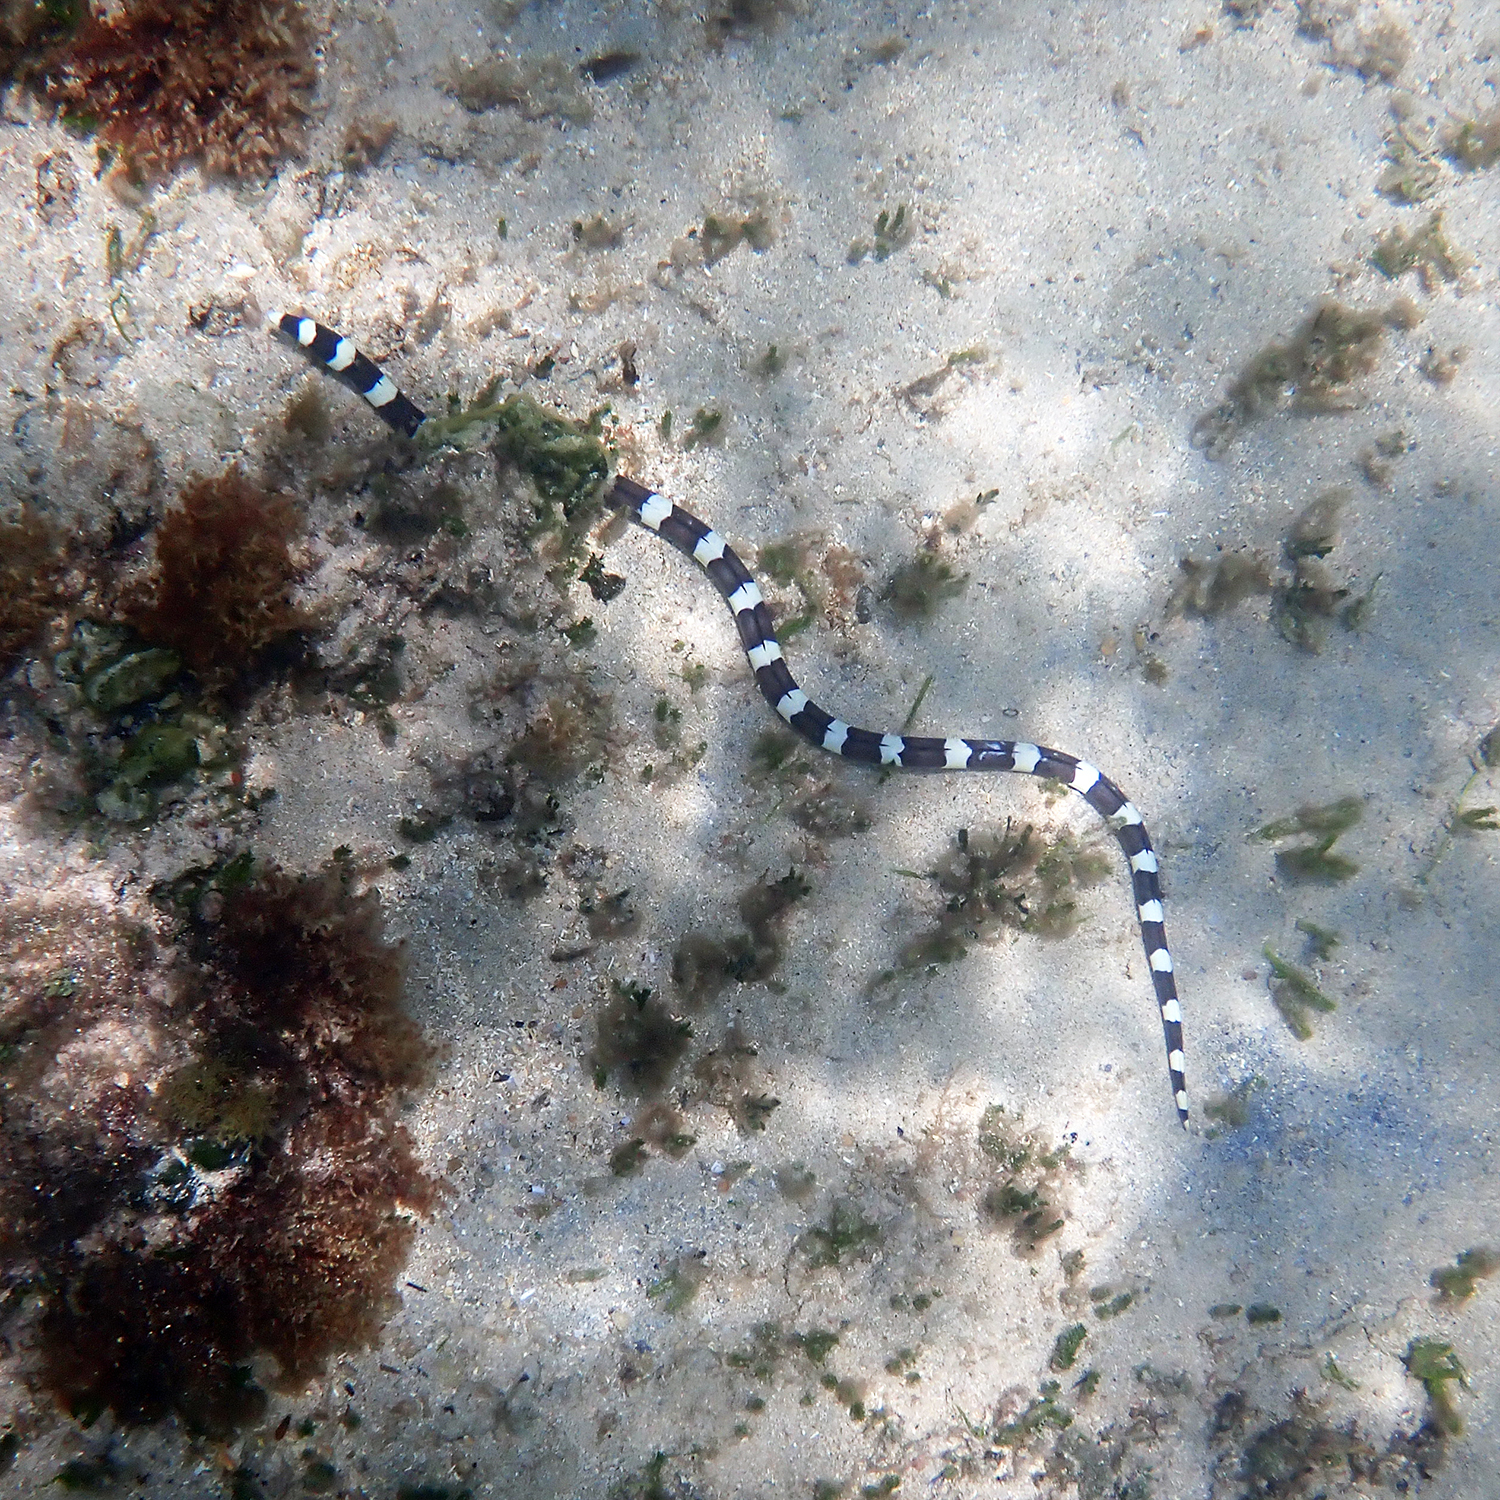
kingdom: Animalia
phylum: Chordata
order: Anguilliformes
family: Ophichthidae
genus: Leiuranus
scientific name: Leiuranus semicinctus
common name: Saddled snake eel
